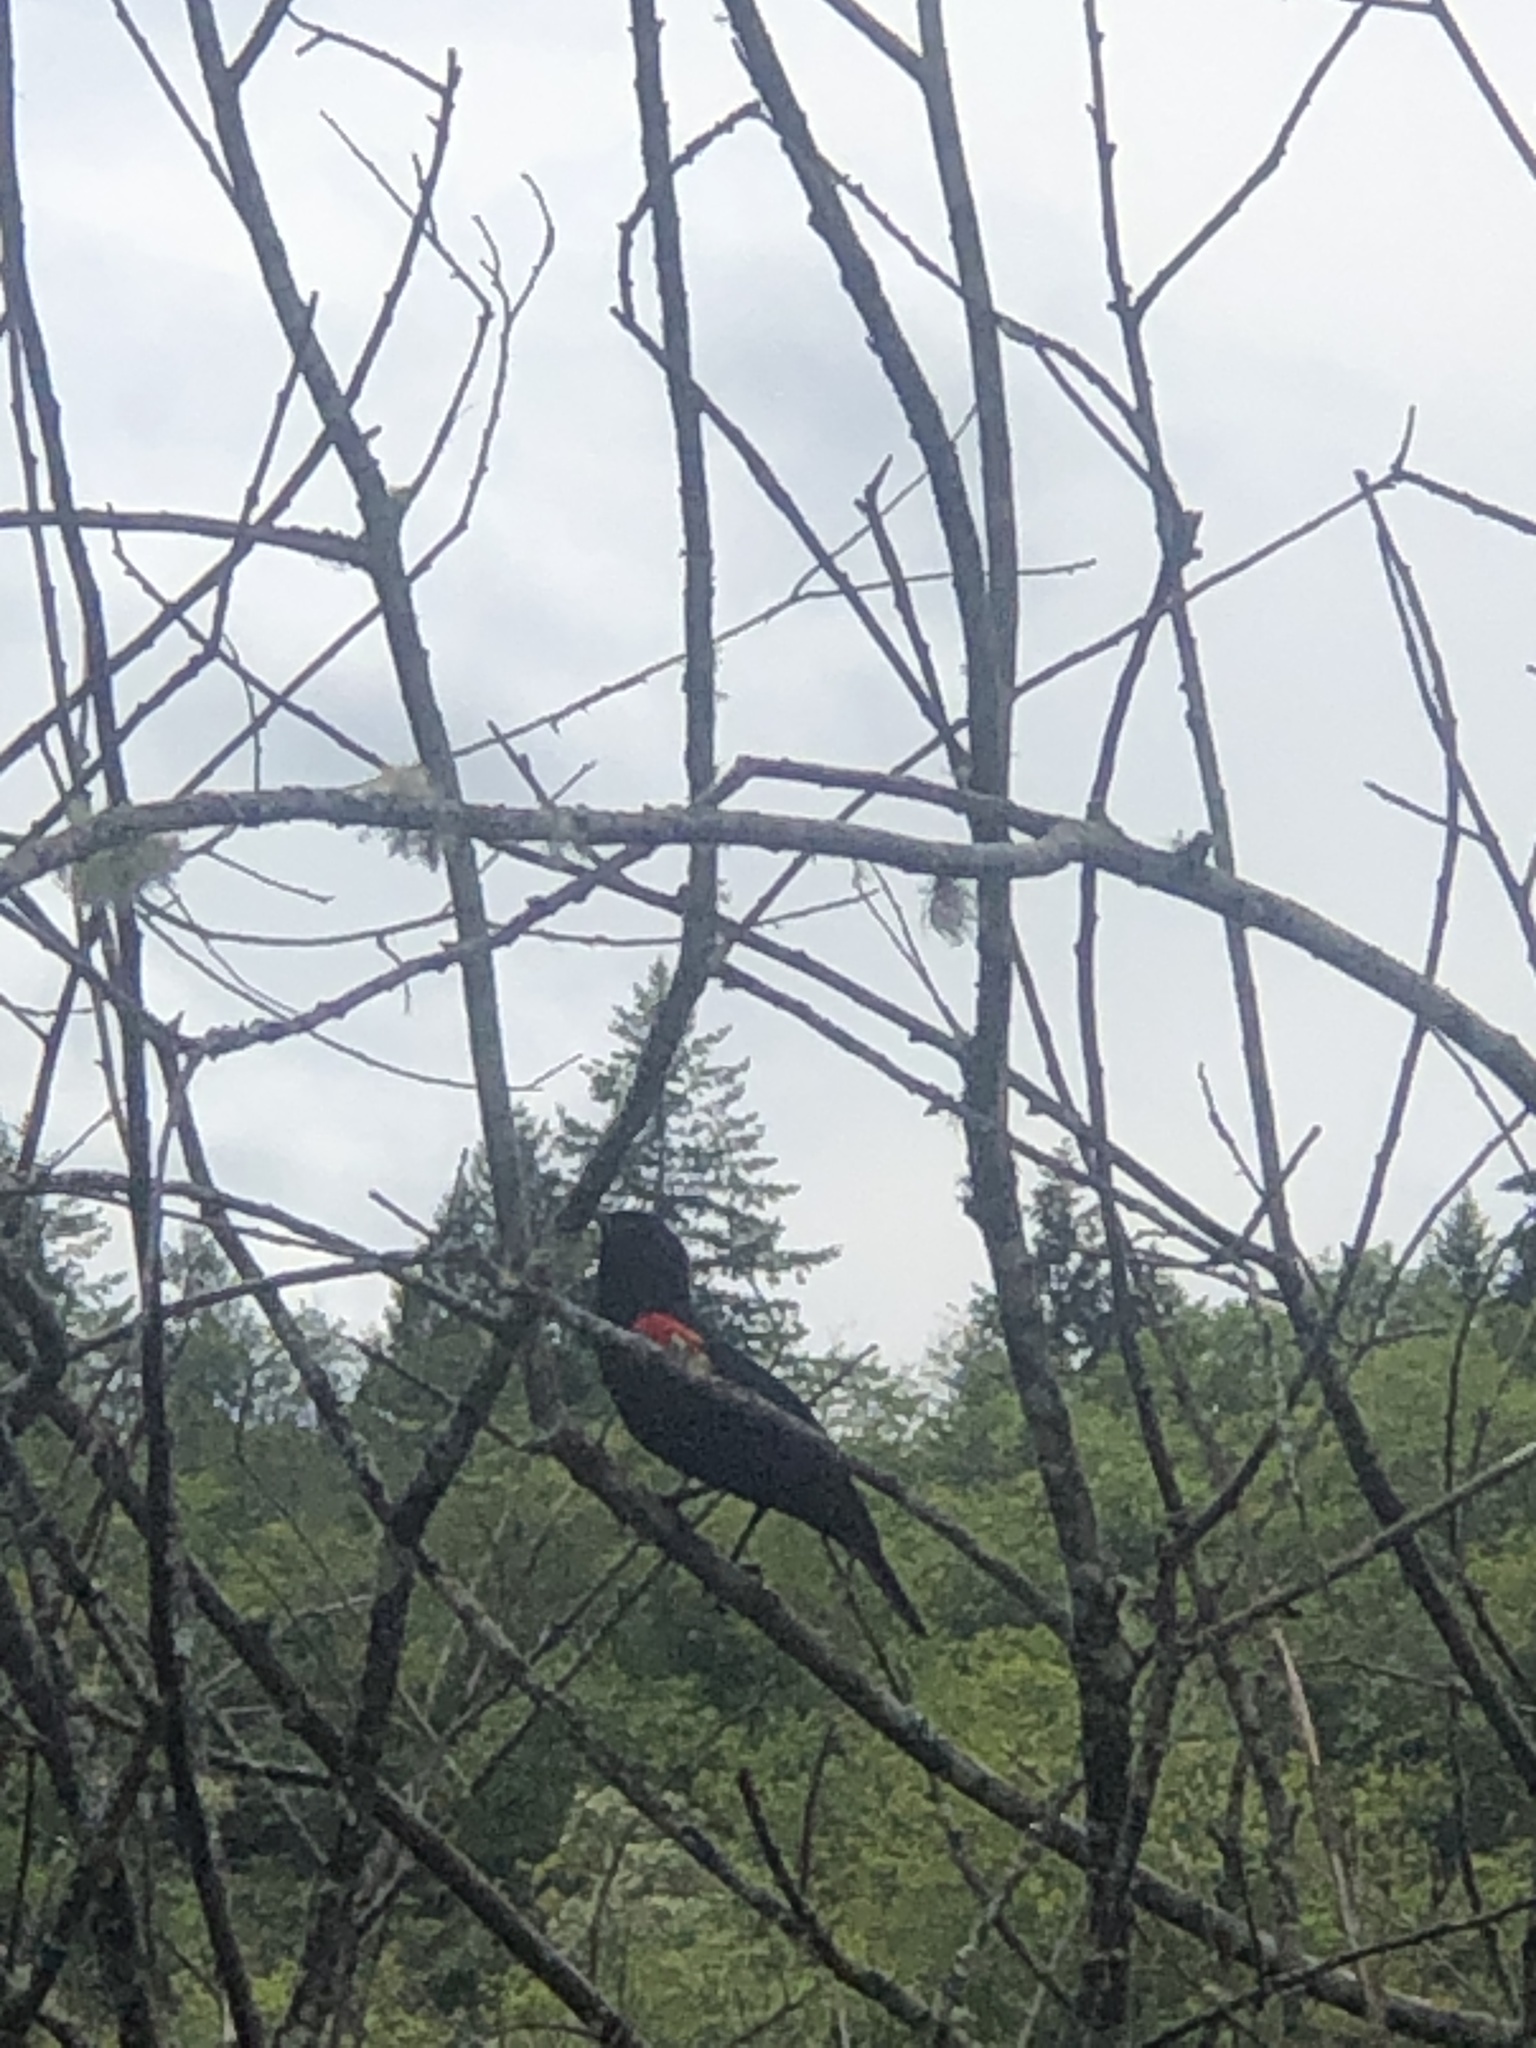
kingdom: Animalia
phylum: Chordata
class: Aves
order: Passeriformes
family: Icteridae
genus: Agelaius
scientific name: Agelaius phoeniceus
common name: Red-winged blackbird
